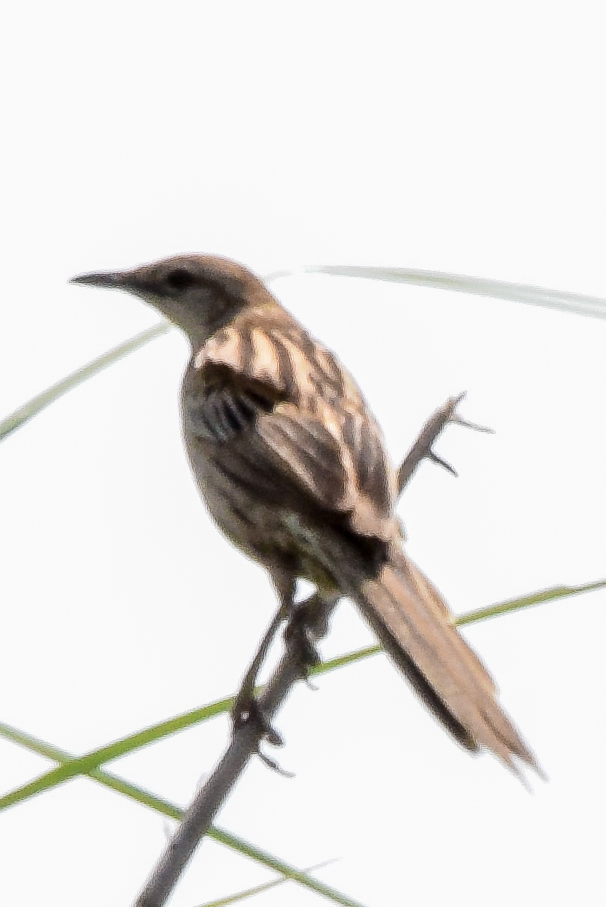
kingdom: Animalia
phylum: Chordata
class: Aves
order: Passeriformes
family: Locustellidae
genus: Megalurus
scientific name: Megalurus palustris
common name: Striated grassbird
